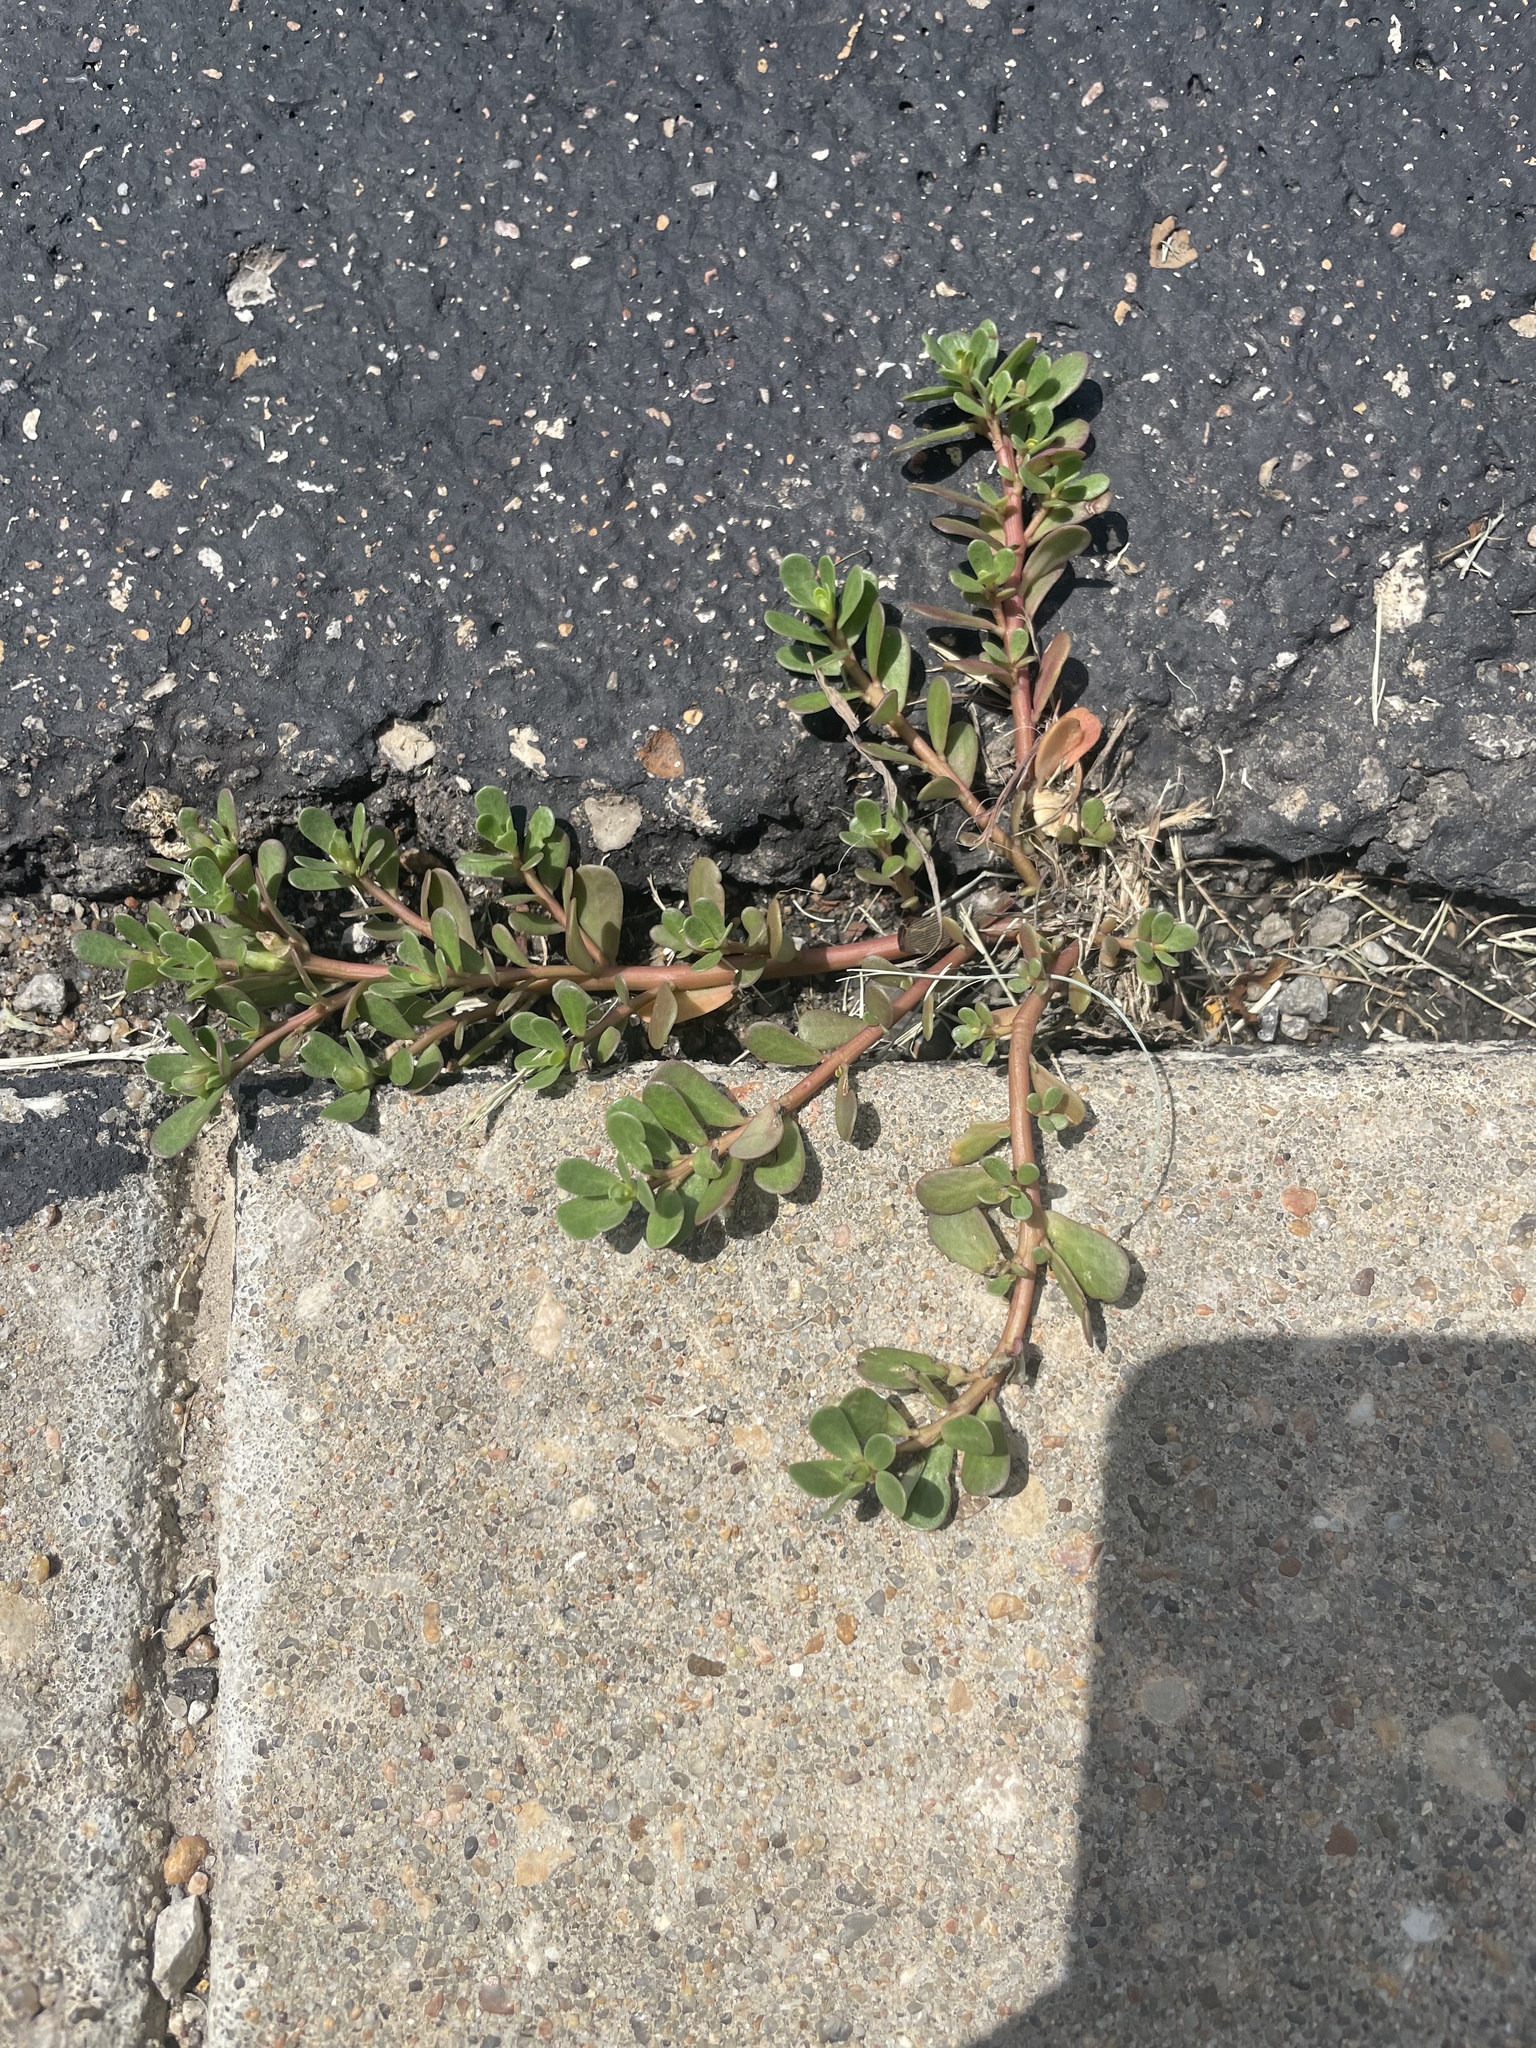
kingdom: Plantae
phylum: Tracheophyta
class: Magnoliopsida
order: Caryophyllales
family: Portulacaceae
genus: Portulaca
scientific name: Portulaca oleracea
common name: Common purslane
